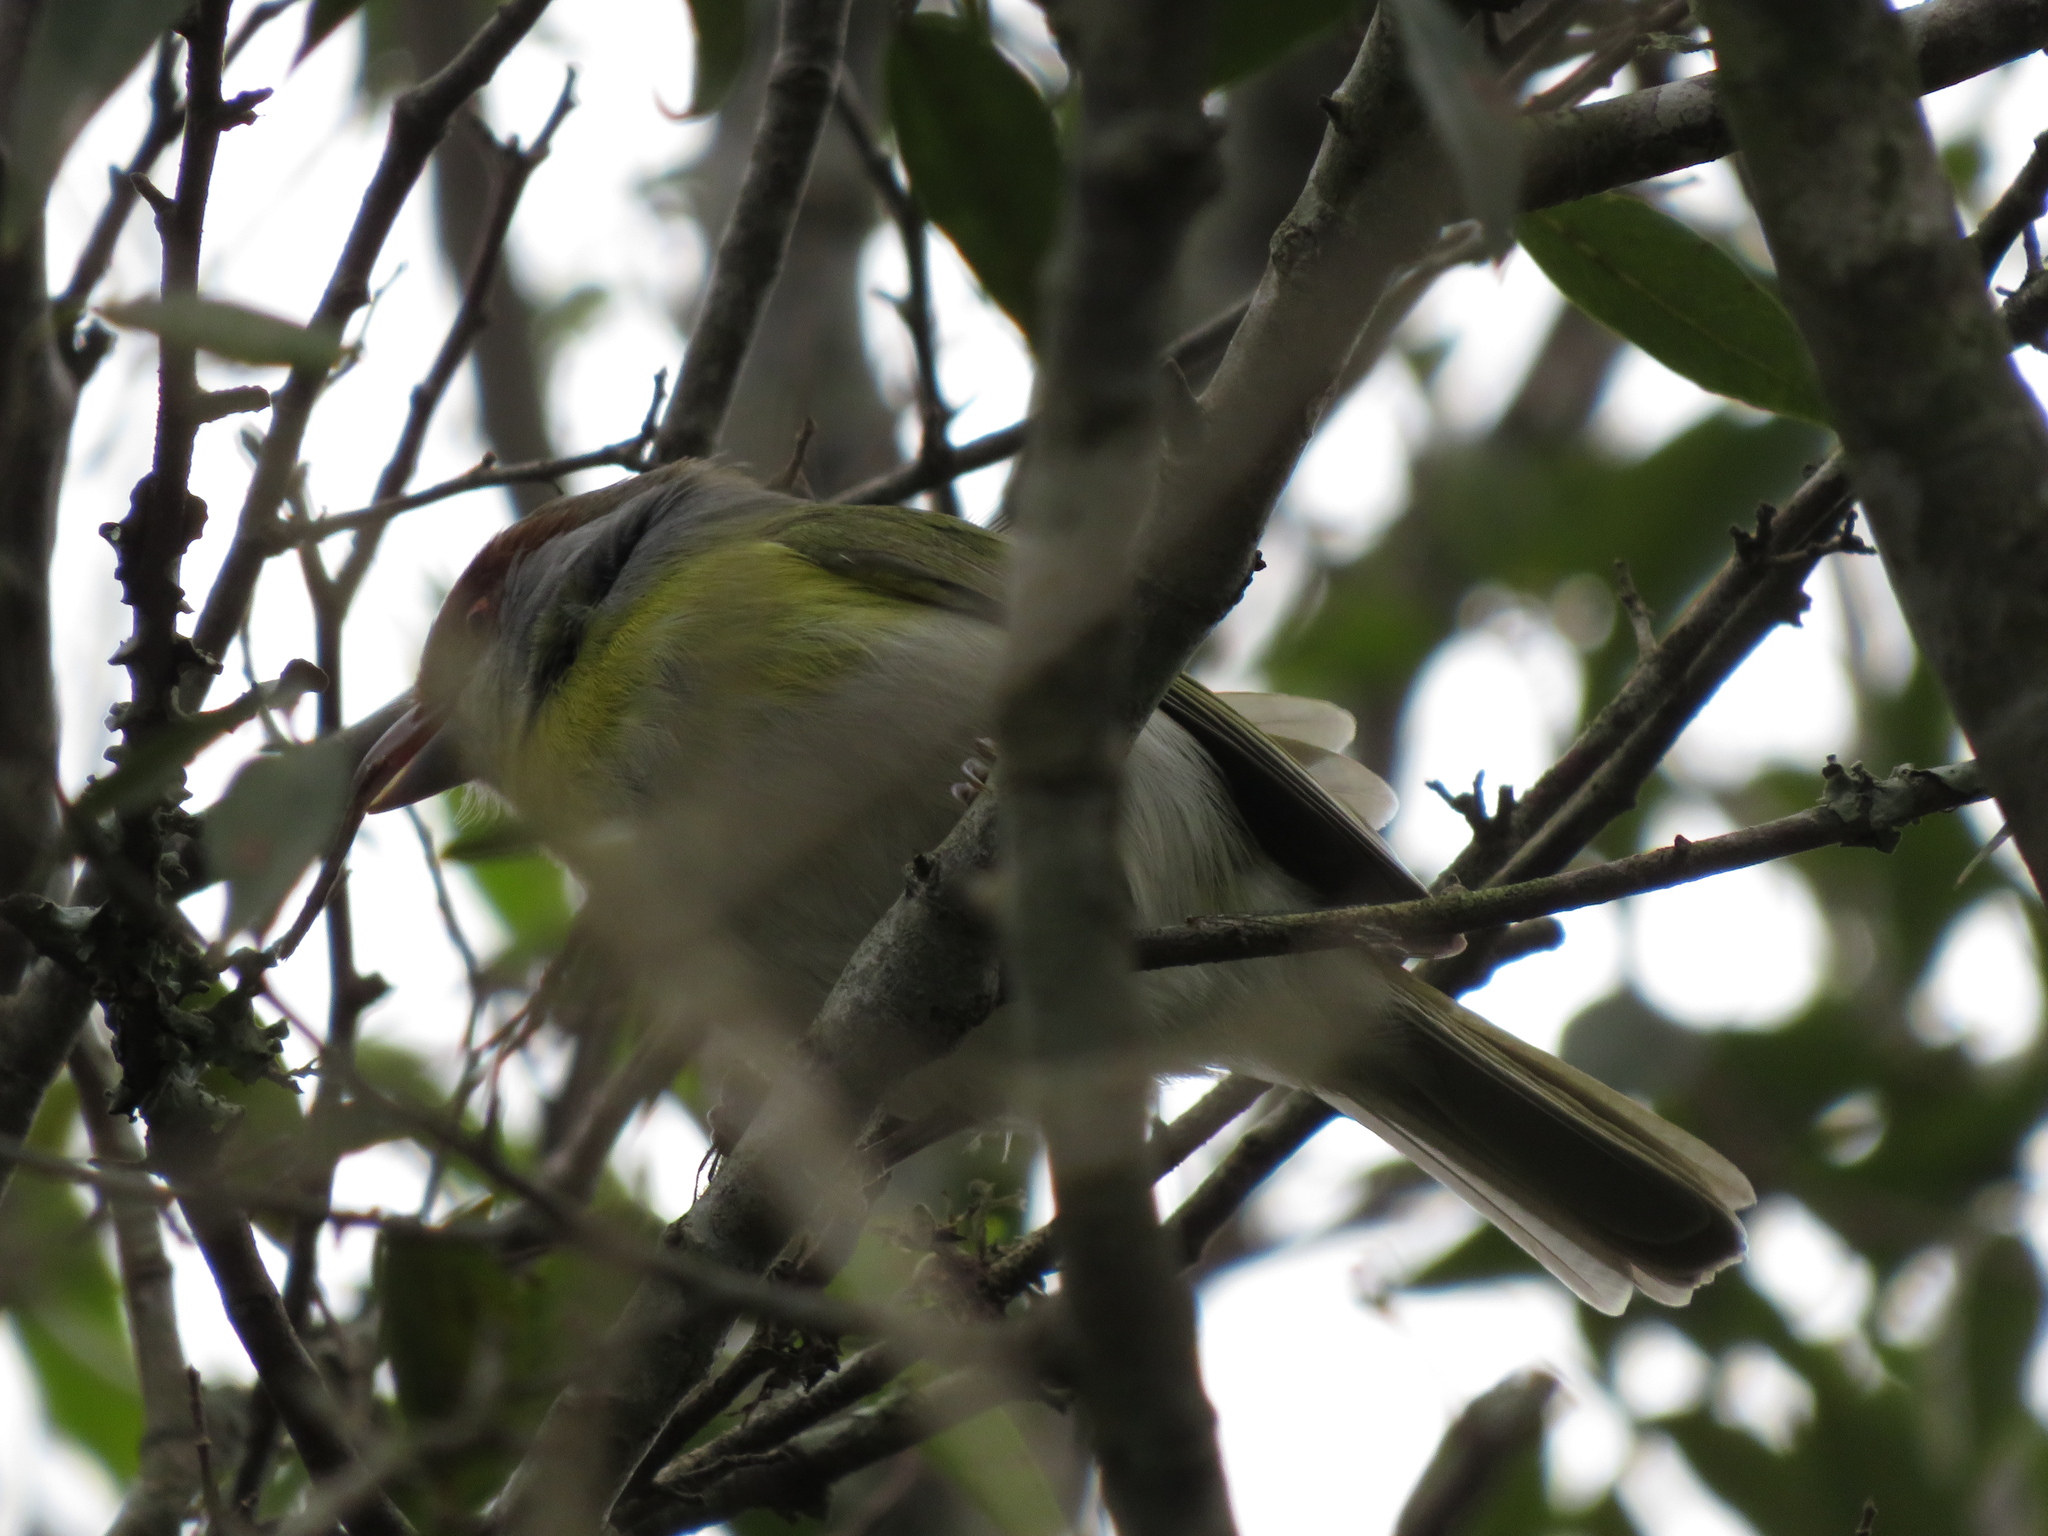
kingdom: Animalia
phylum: Chordata
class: Aves
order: Passeriformes
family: Vireonidae
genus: Cyclarhis
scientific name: Cyclarhis gujanensis
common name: Rufous-browed peppershrike
